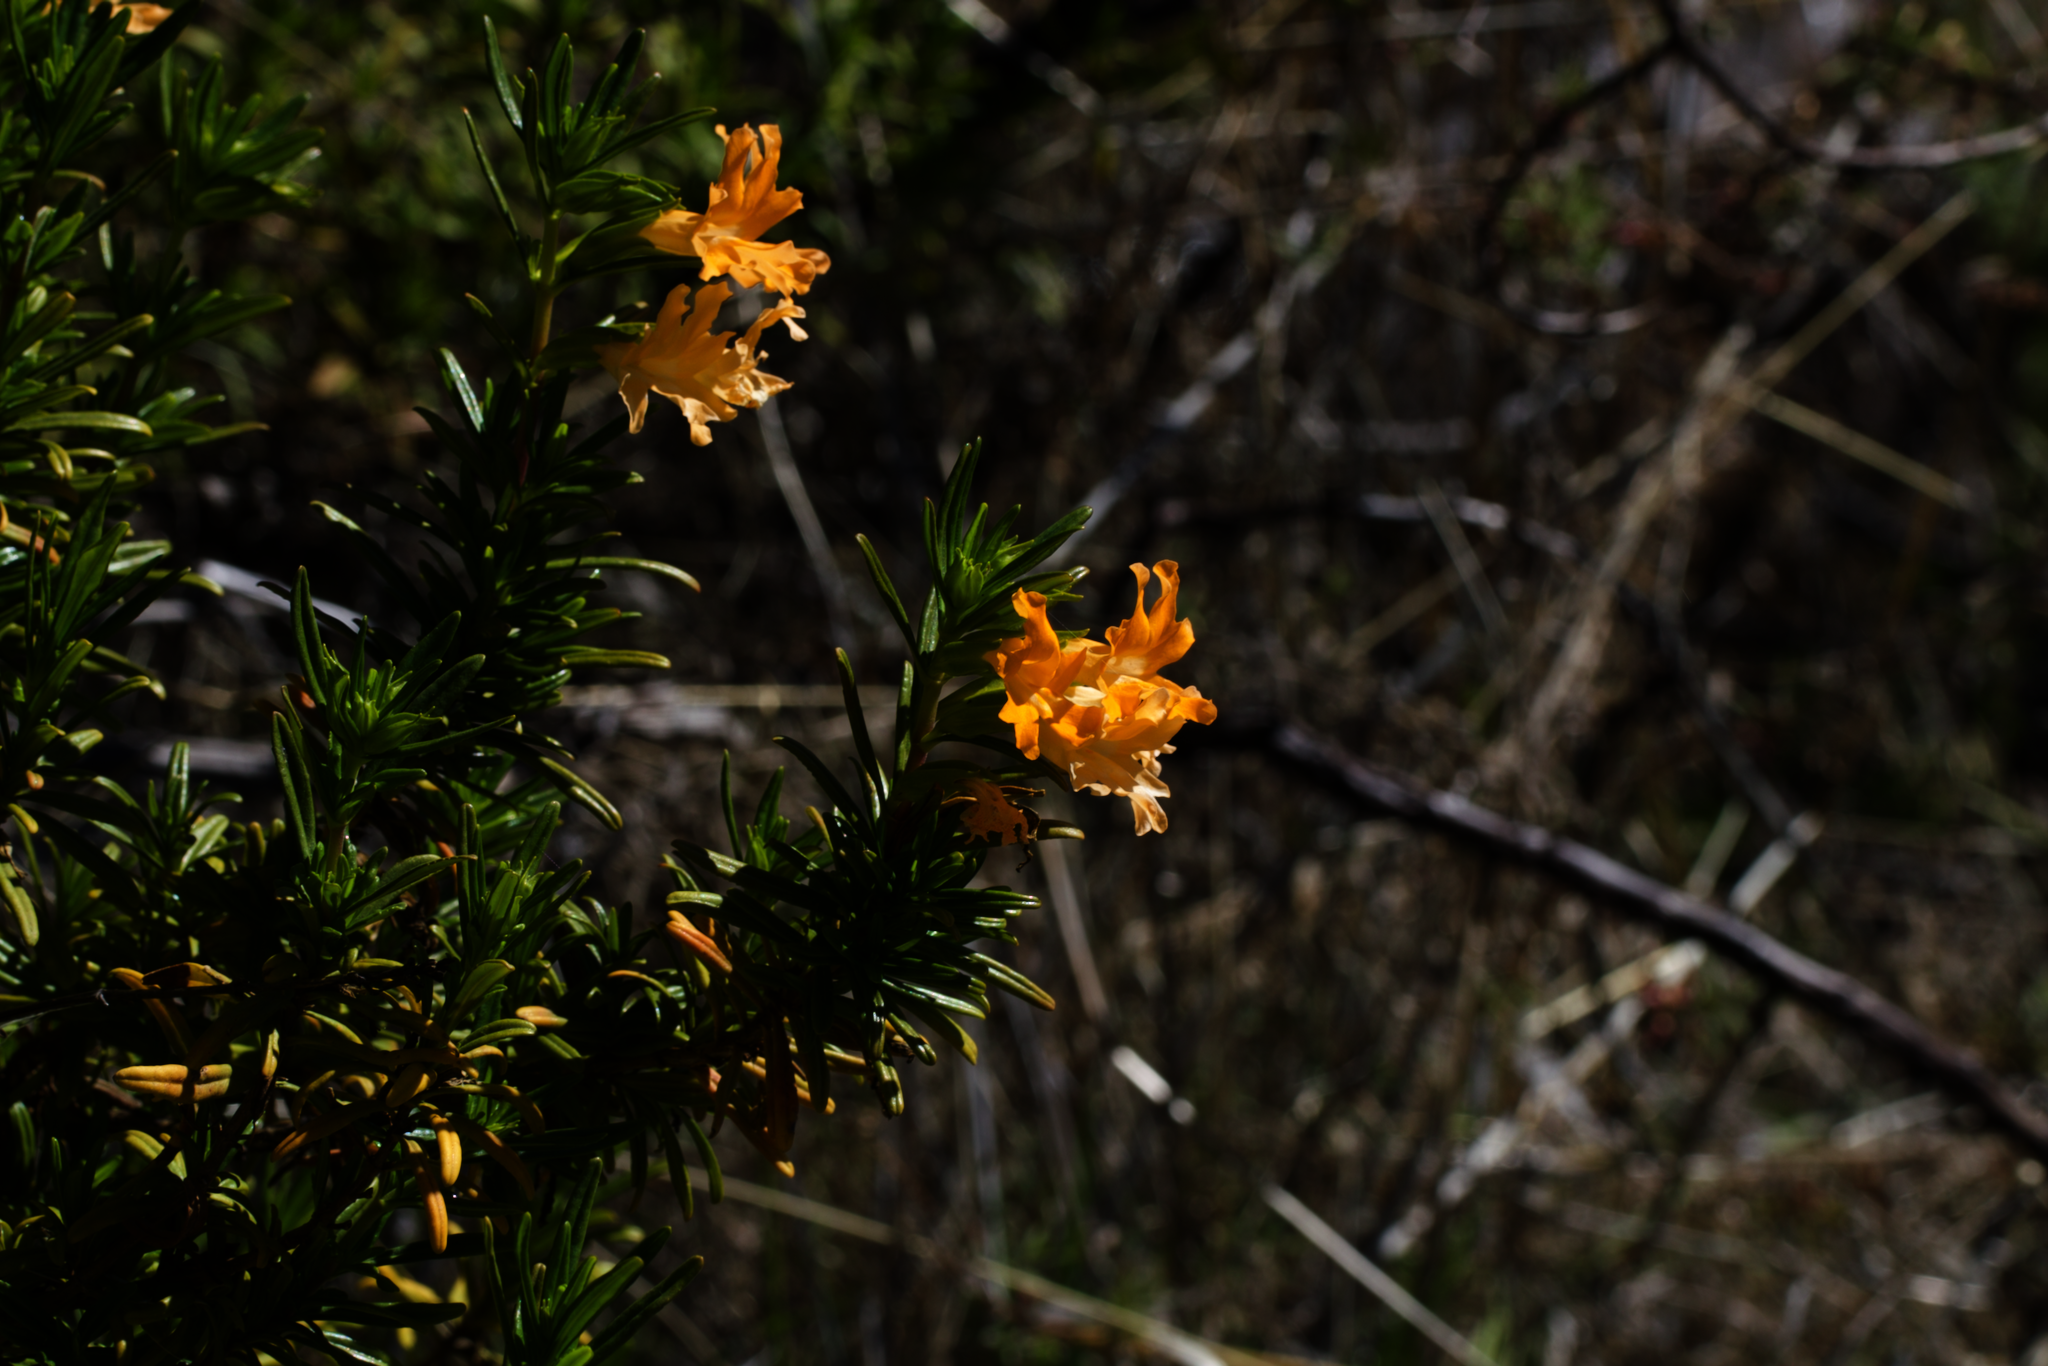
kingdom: Plantae
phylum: Tracheophyta
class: Magnoliopsida
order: Lamiales
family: Phrymaceae
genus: Diplacus
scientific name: Diplacus linearis
